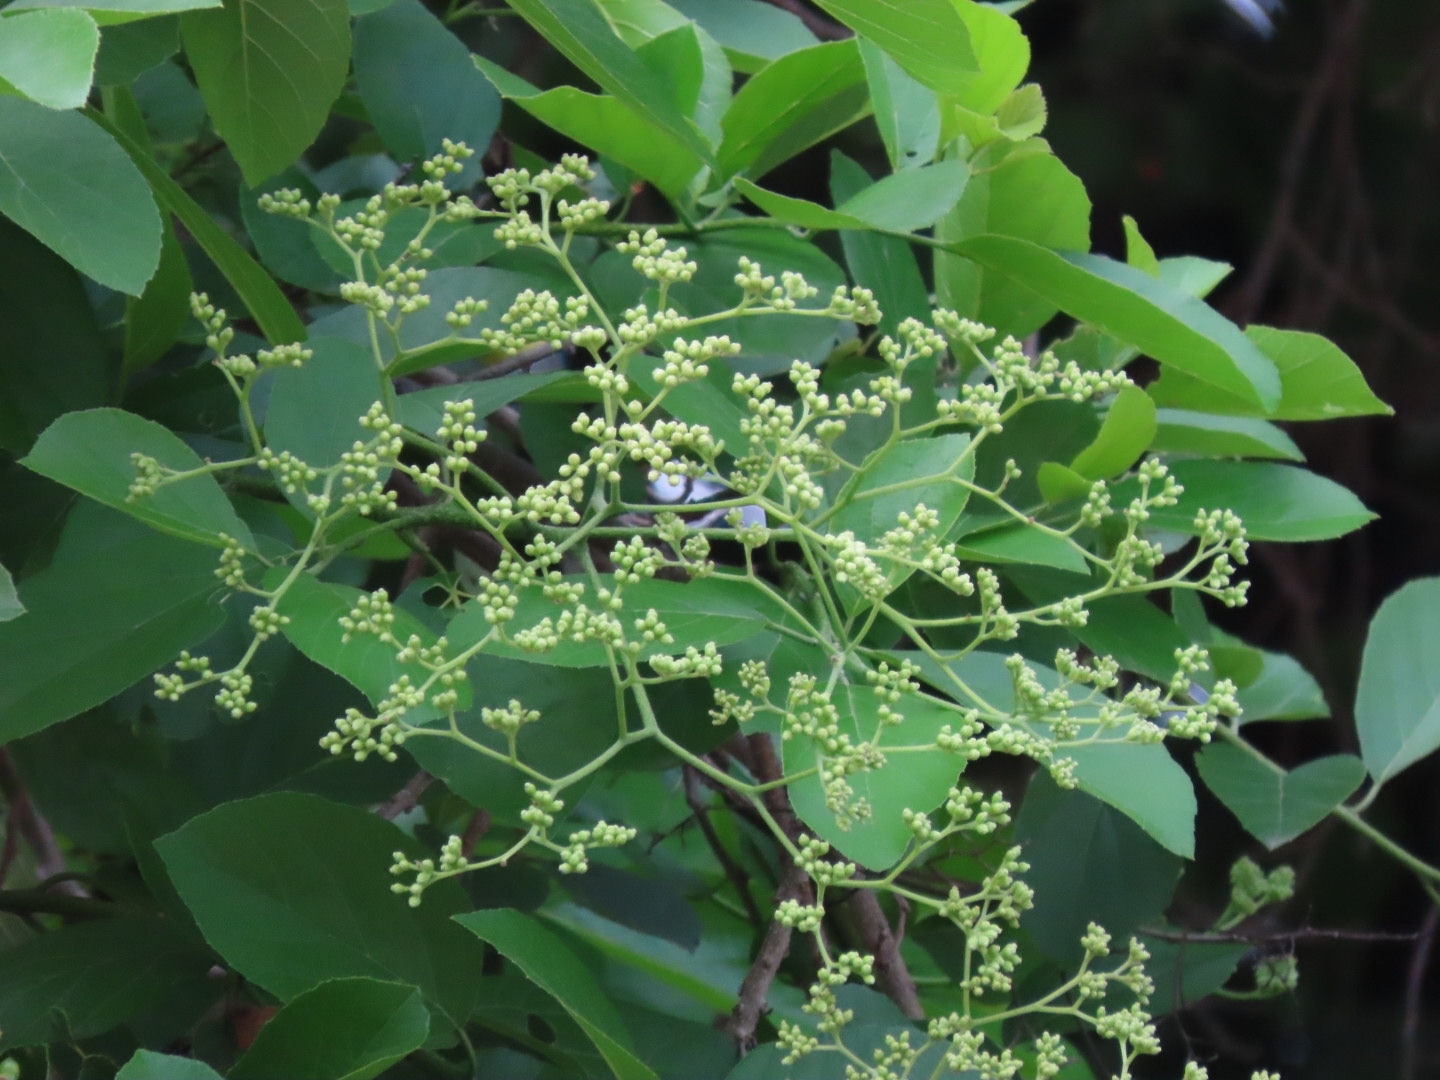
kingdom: Plantae
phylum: Tracheophyta
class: Magnoliopsida
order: Boraginales
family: Cordiaceae
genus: Cordia
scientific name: Cordia dentata
